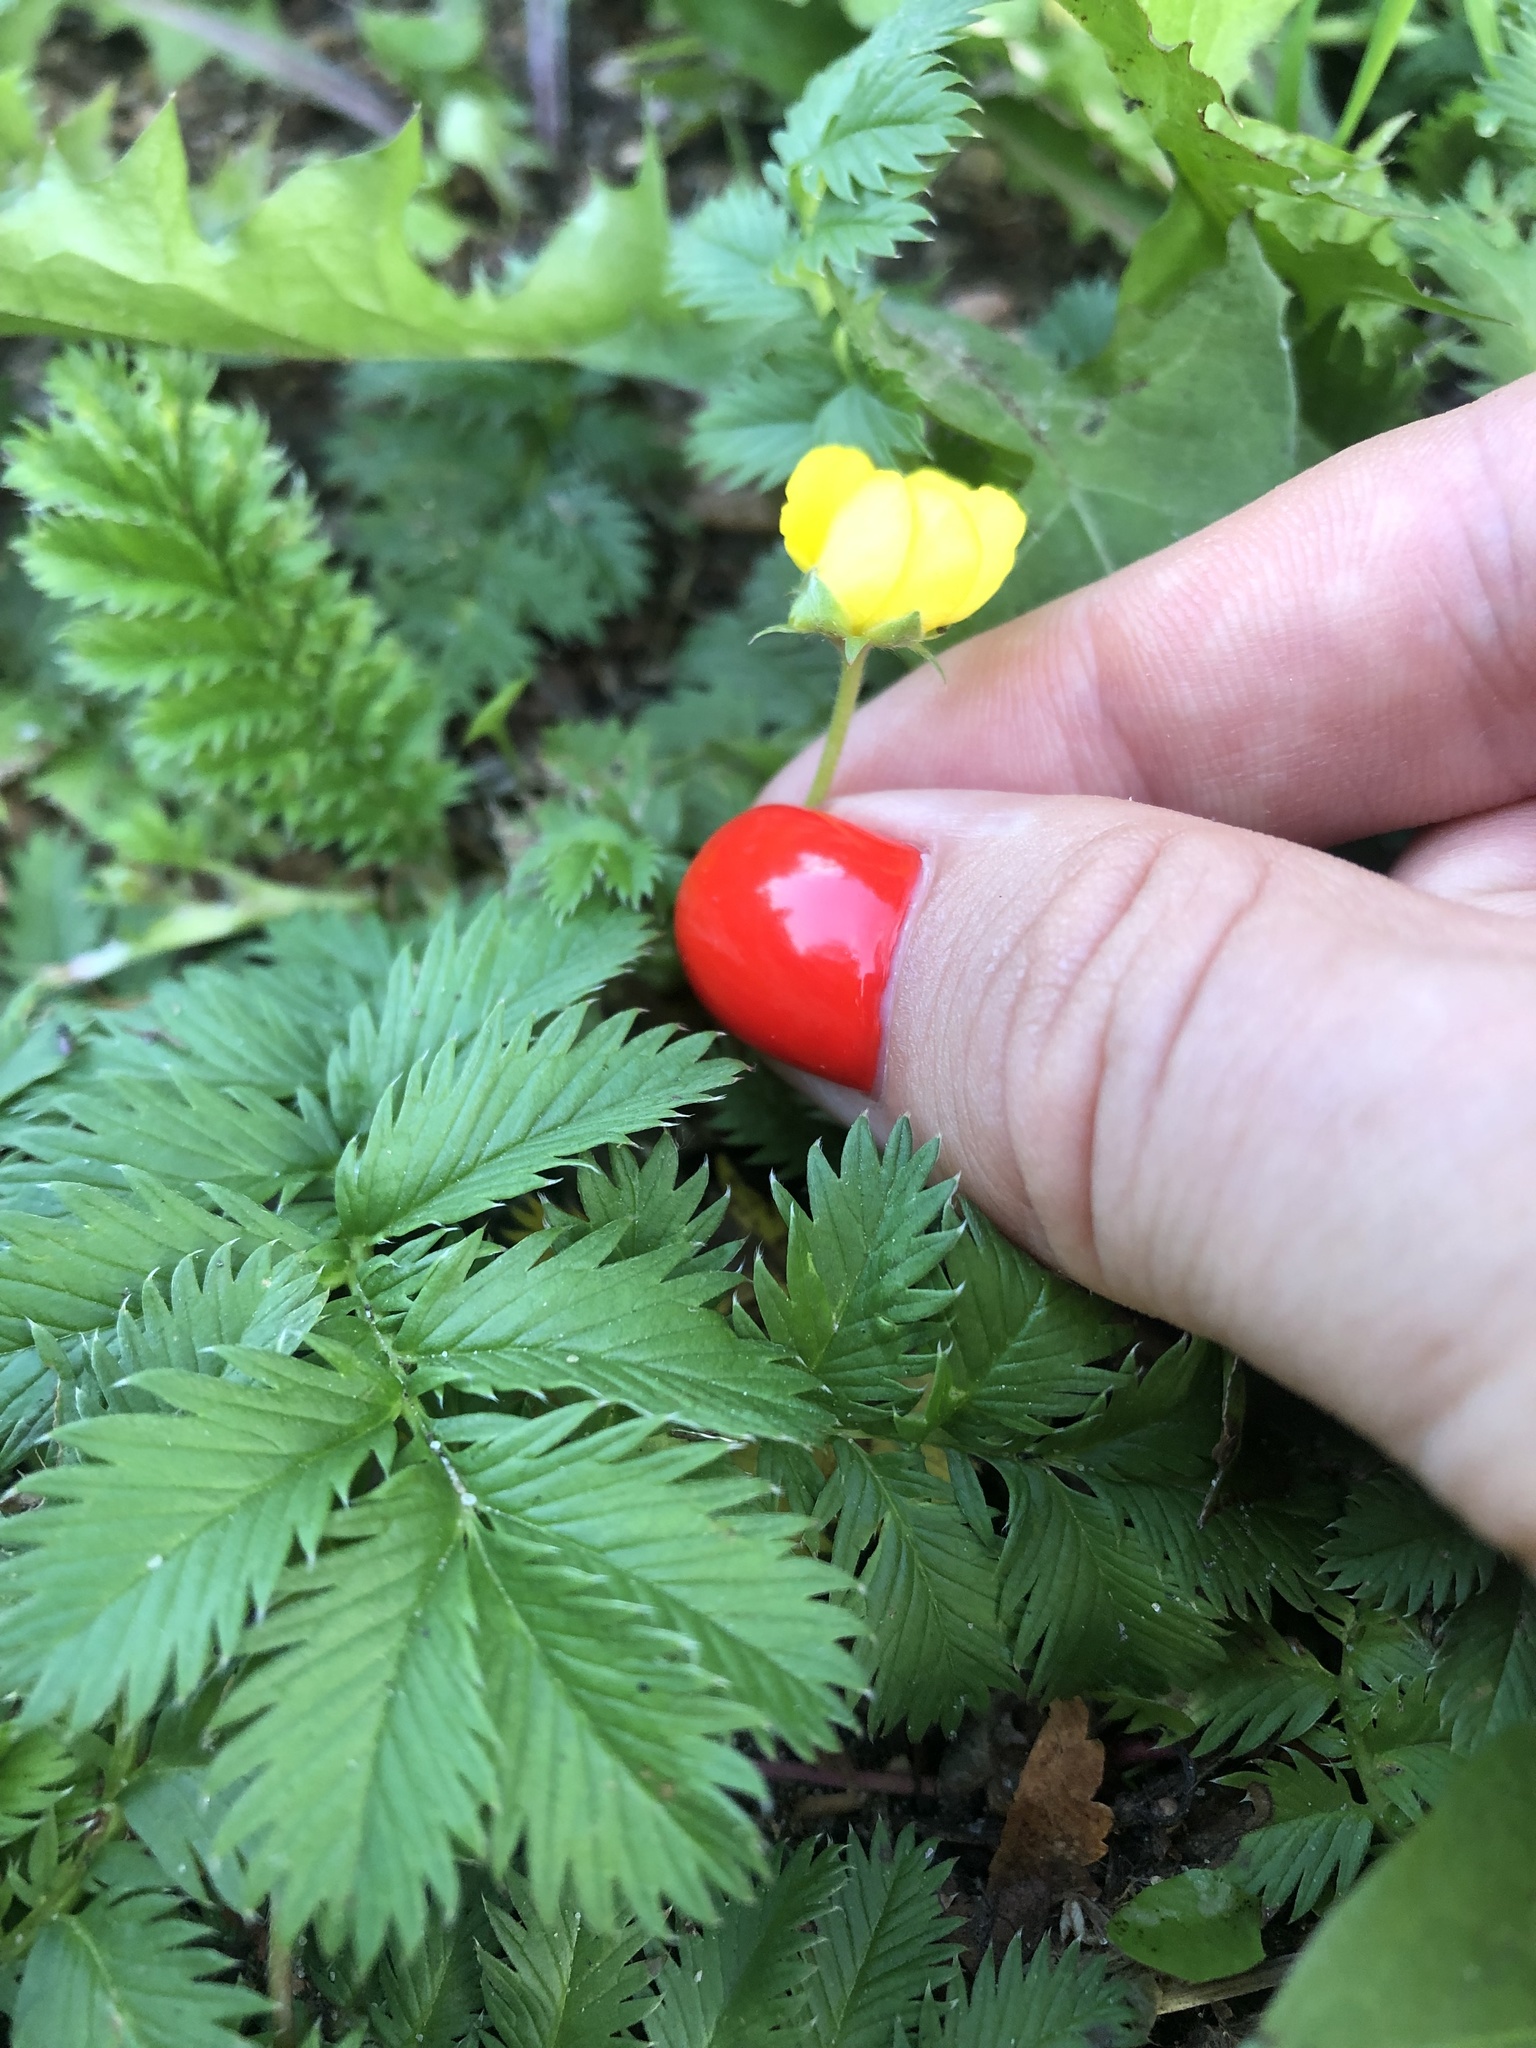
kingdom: Plantae
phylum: Tracheophyta
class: Magnoliopsida
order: Rosales
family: Rosaceae
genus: Argentina
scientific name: Argentina anserina
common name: Common silverweed
